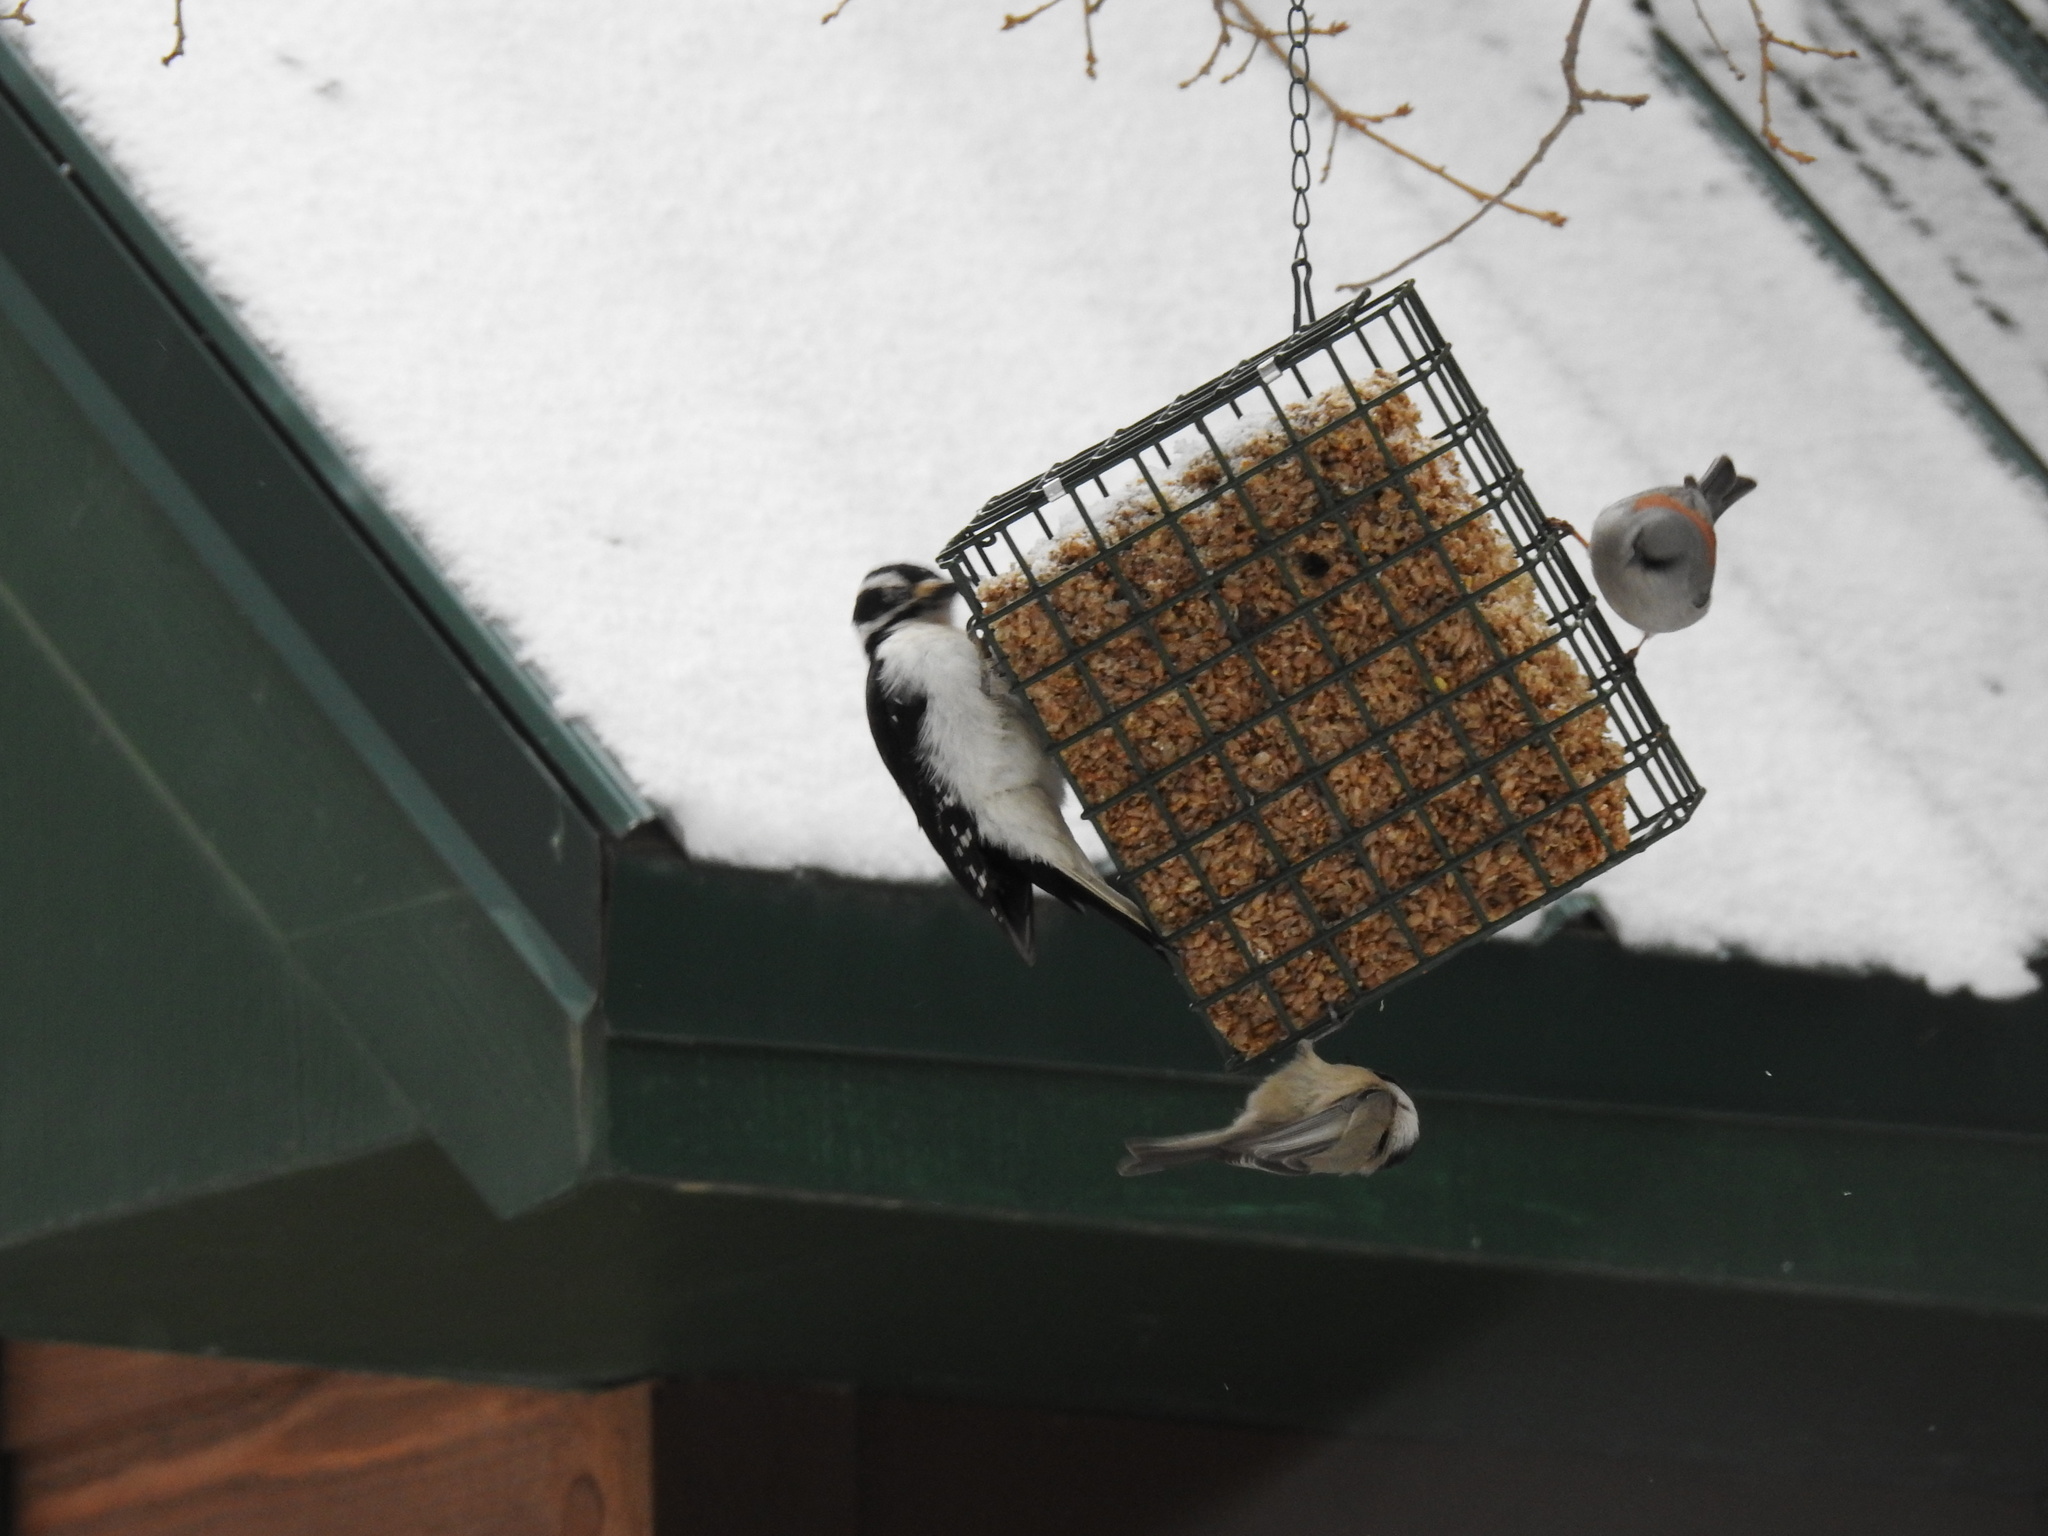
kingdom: Animalia
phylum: Chordata
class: Aves
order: Passeriformes
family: Paridae
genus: Poecile
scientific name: Poecile gambeli
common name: Mountain chickadee
